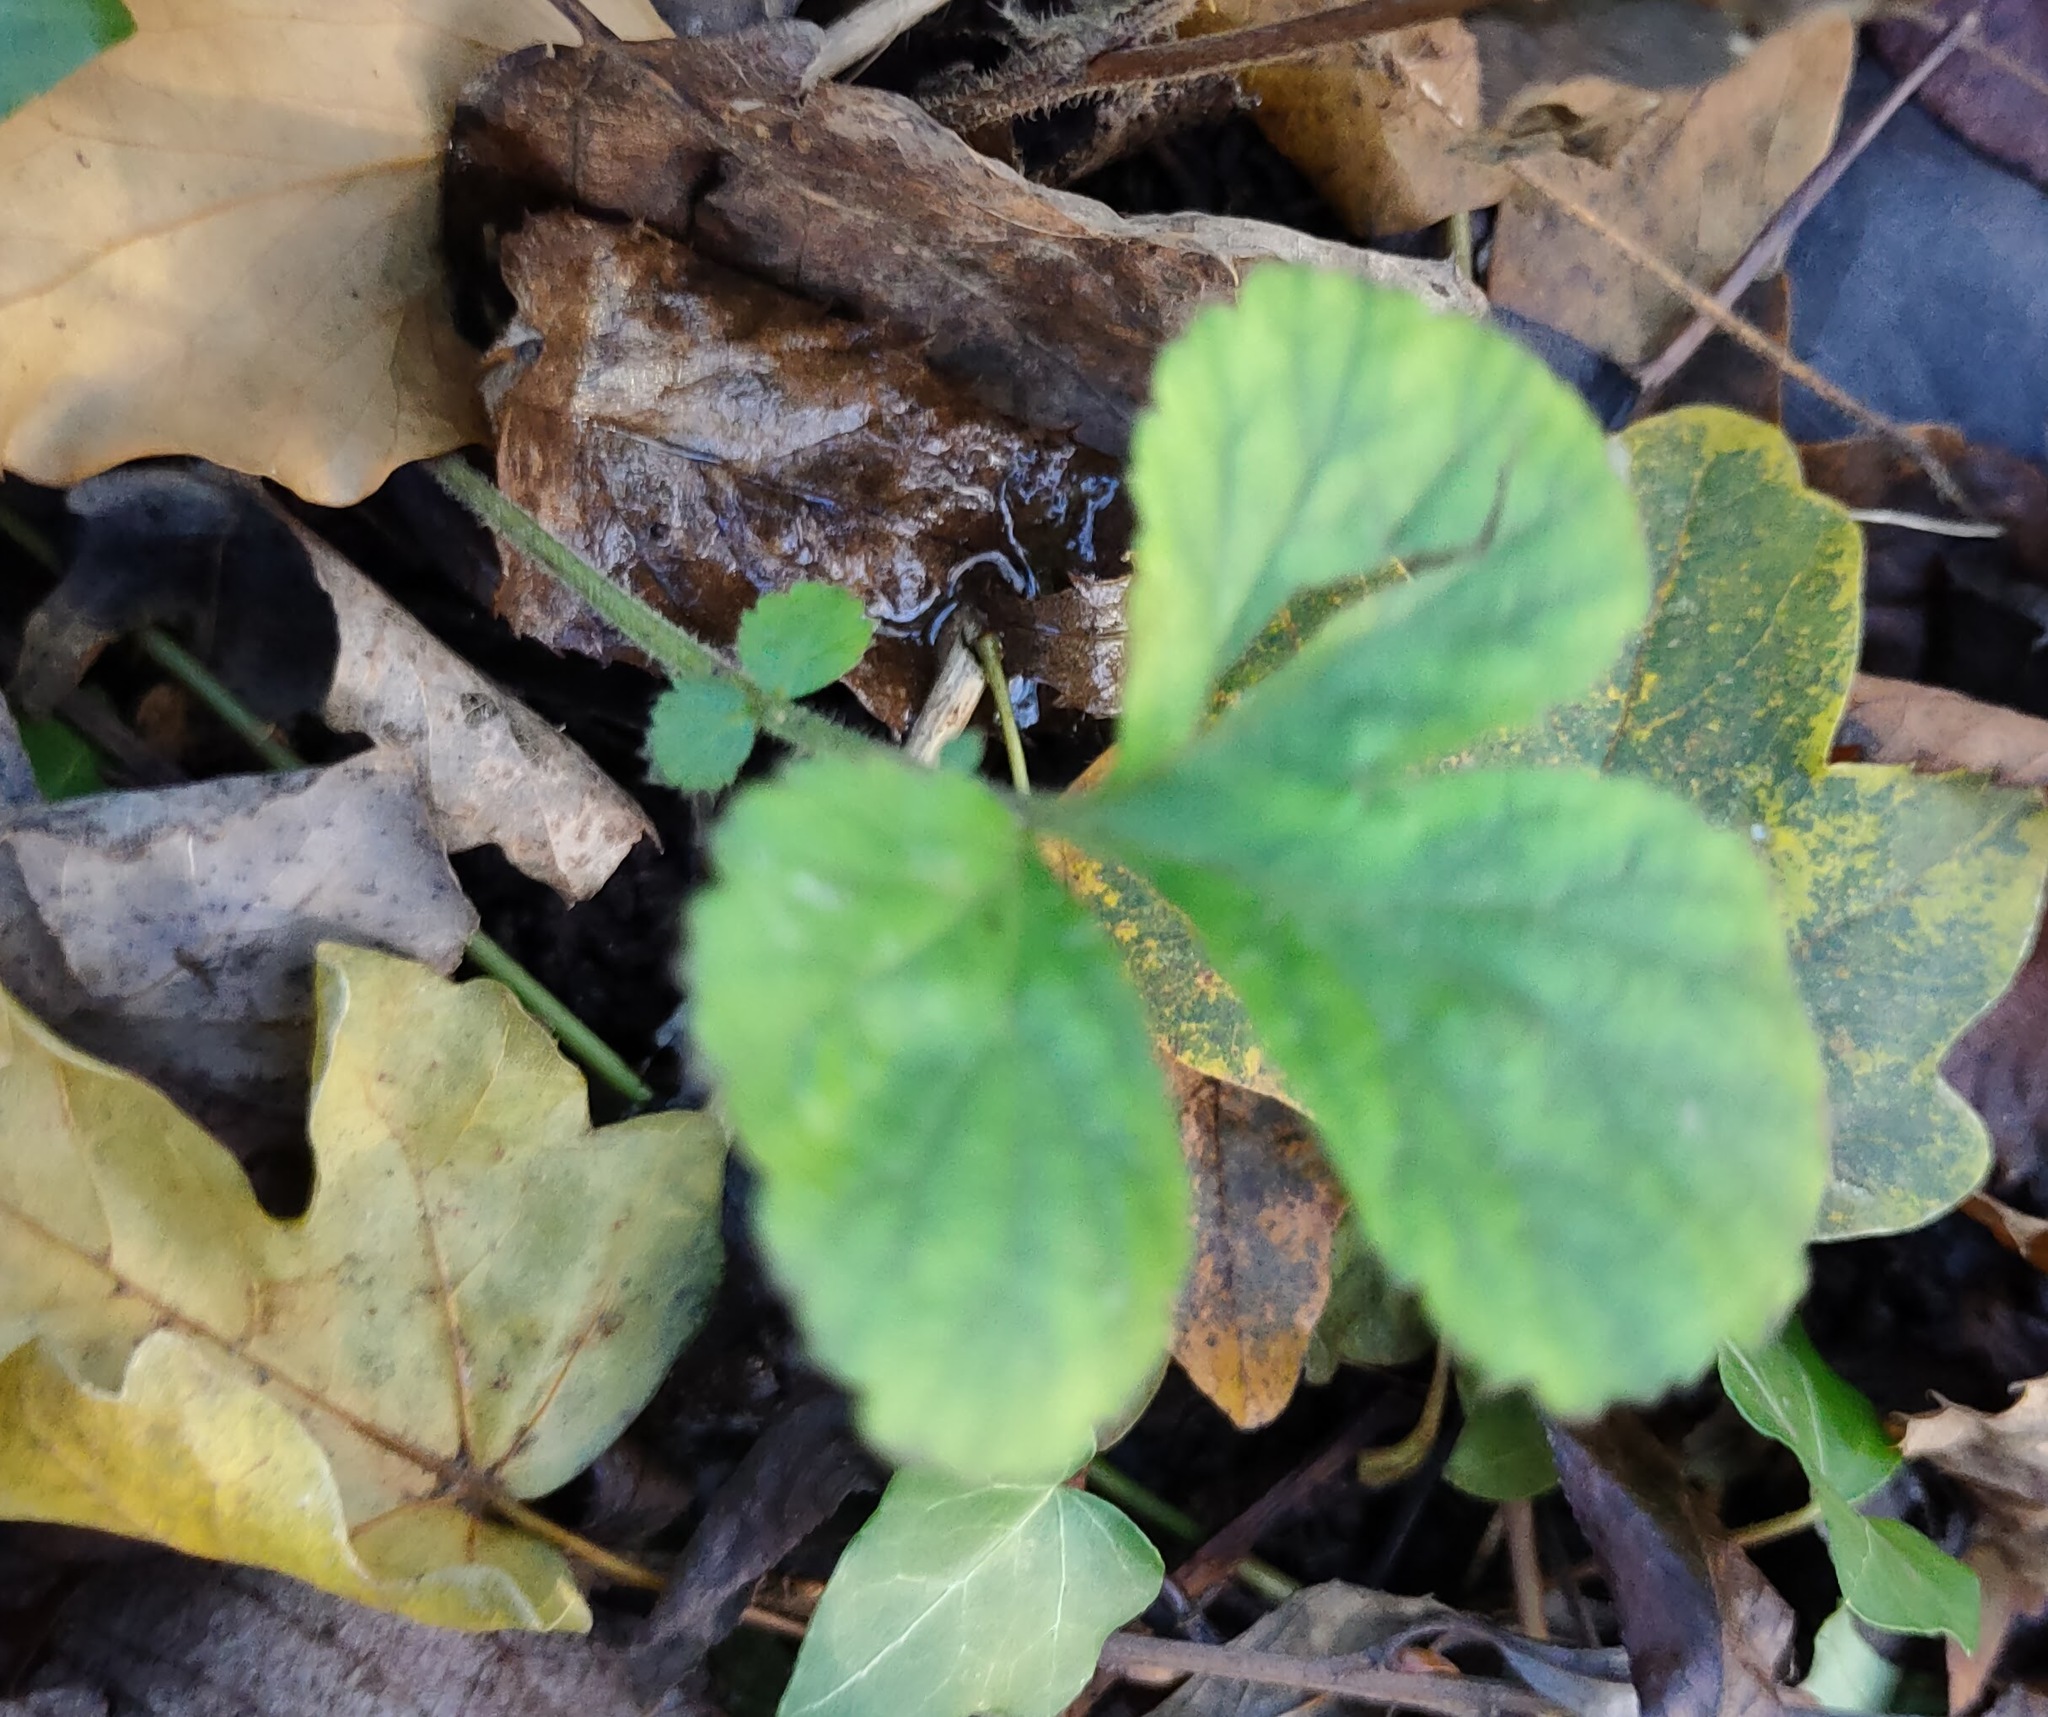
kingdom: Plantae
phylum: Tracheophyta
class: Magnoliopsida
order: Rosales
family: Rosaceae
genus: Geum
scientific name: Geum urbanum
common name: Wood avens
